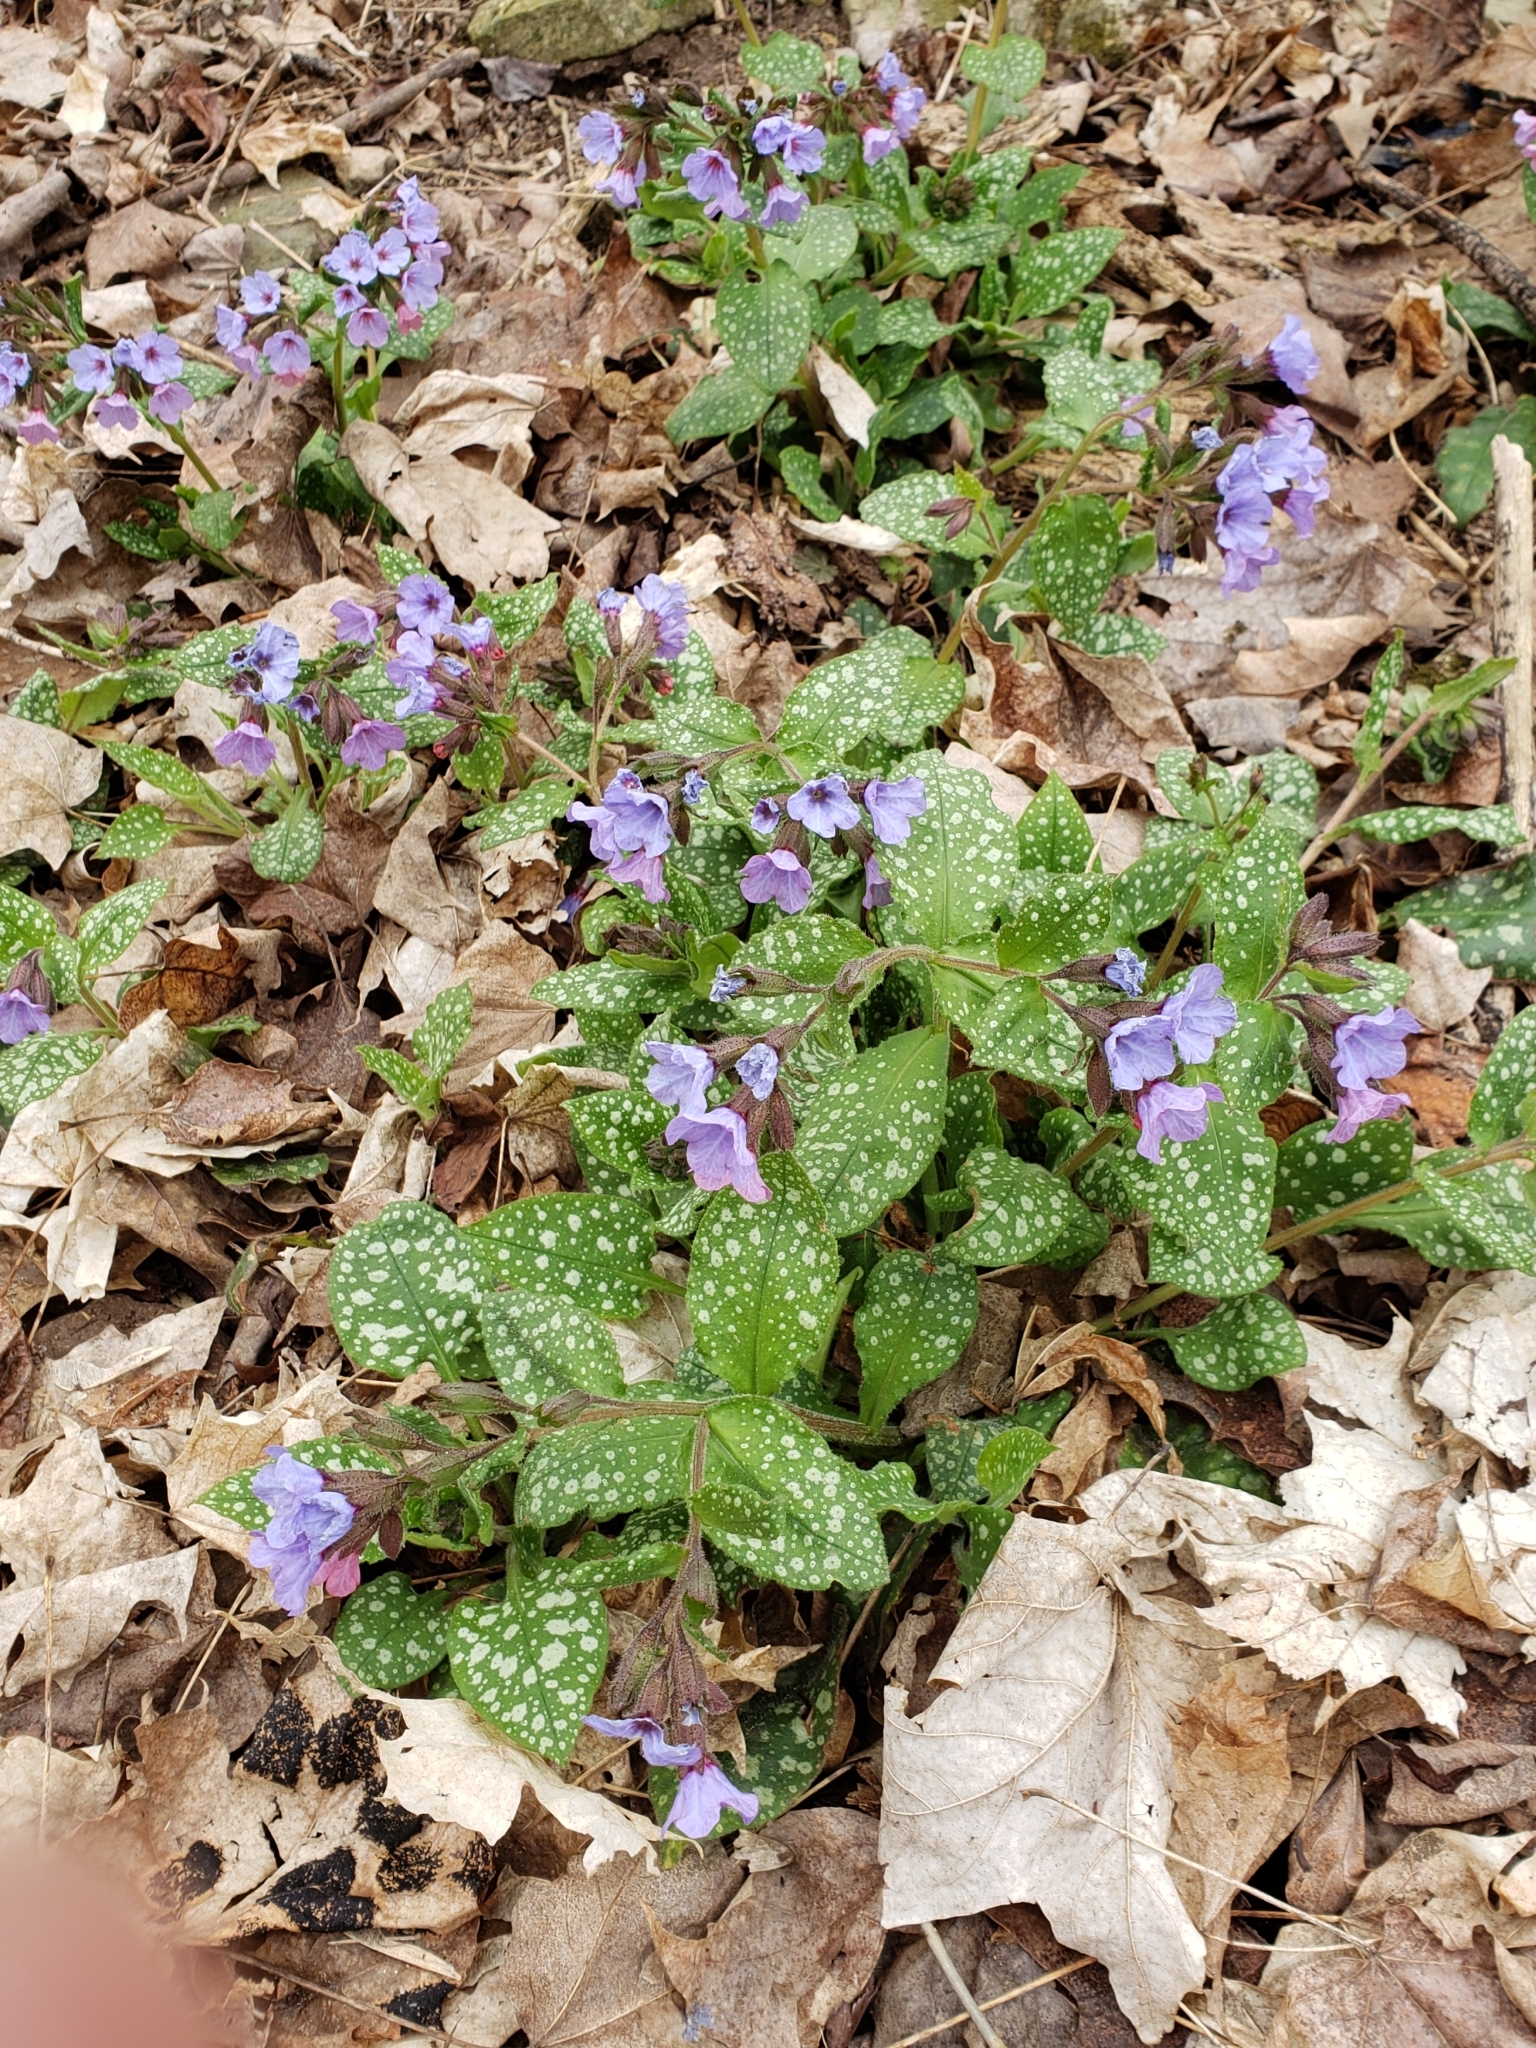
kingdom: Plantae
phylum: Tracheophyta
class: Magnoliopsida
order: Boraginales
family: Boraginaceae
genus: Pulmonaria
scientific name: Pulmonaria officinalis
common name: Lungwort
